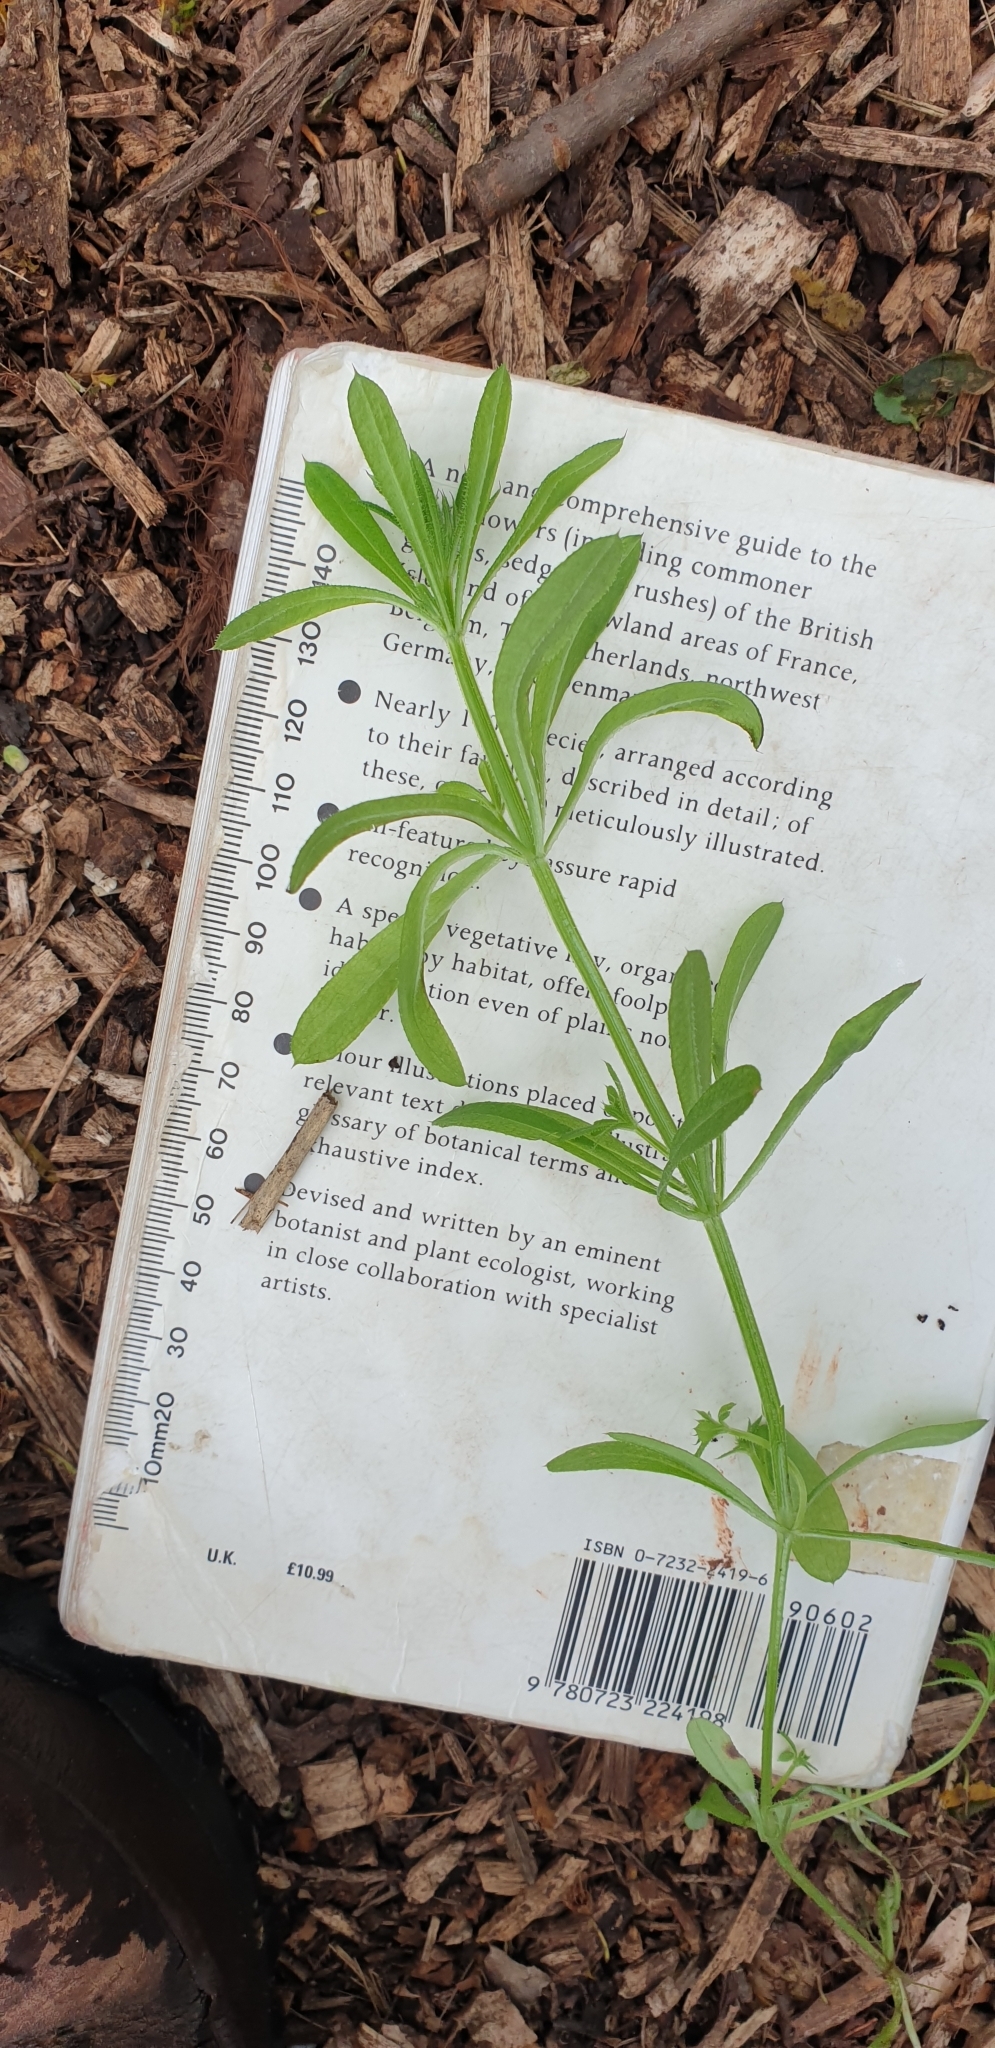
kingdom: Plantae
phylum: Tracheophyta
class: Magnoliopsida
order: Gentianales
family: Rubiaceae
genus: Galium
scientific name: Galium aparine
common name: Cleavers
